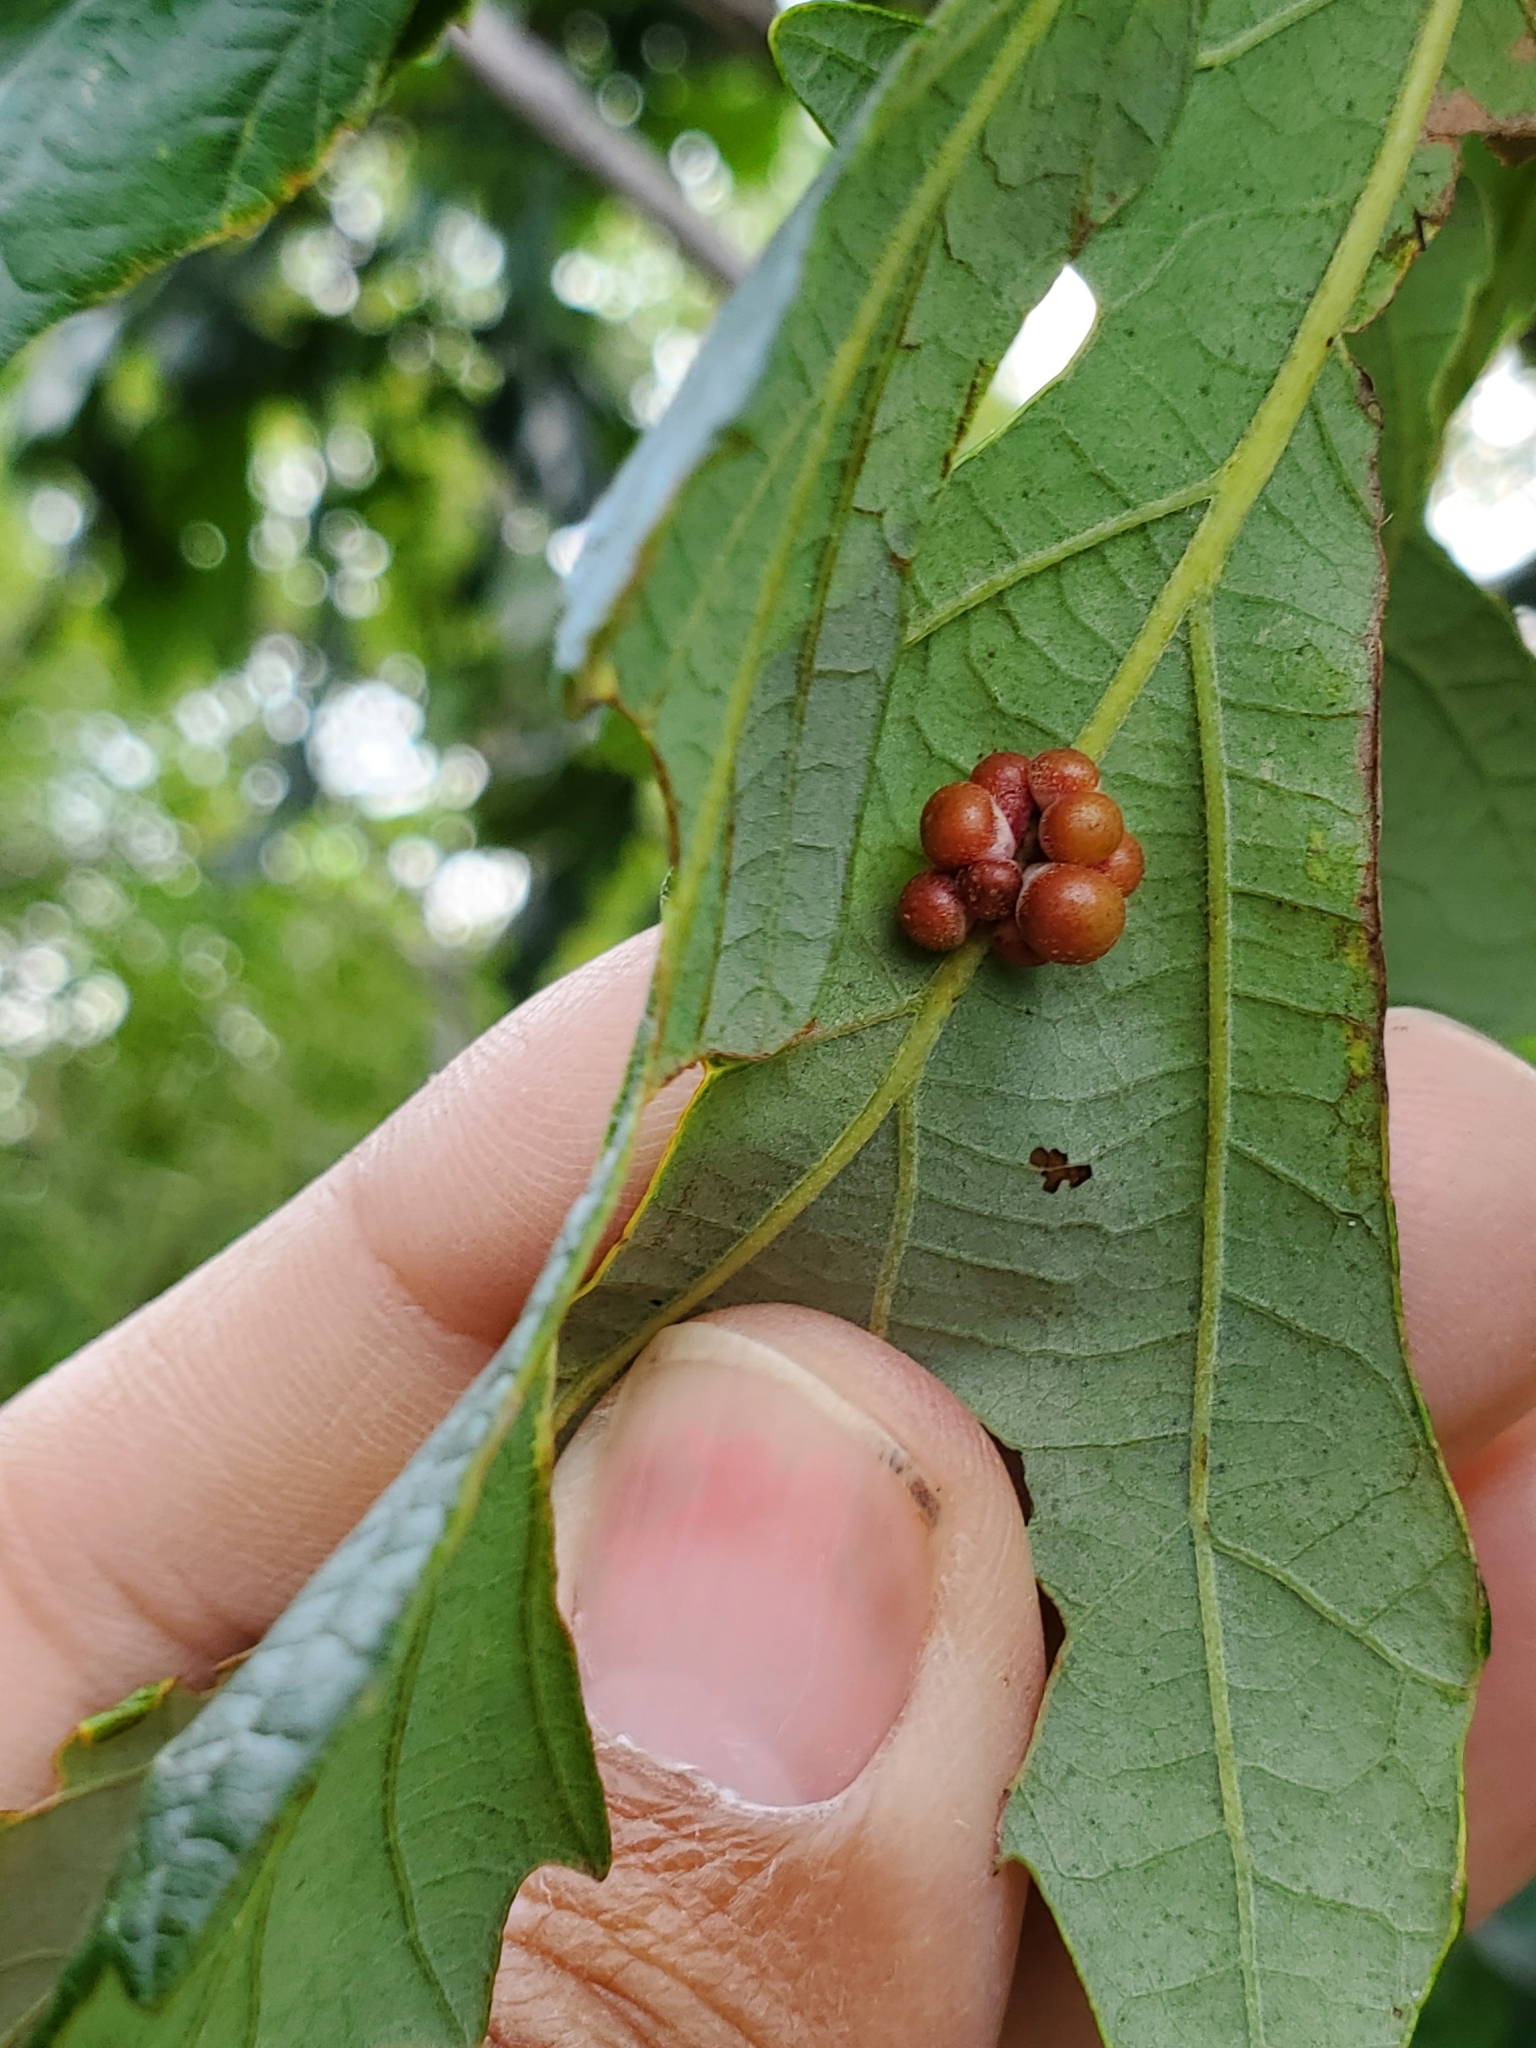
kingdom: Animalia
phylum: Arthropoda
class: Insecta
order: Hymenoptera
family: Cynipidae
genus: Andricus
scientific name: Andricus
